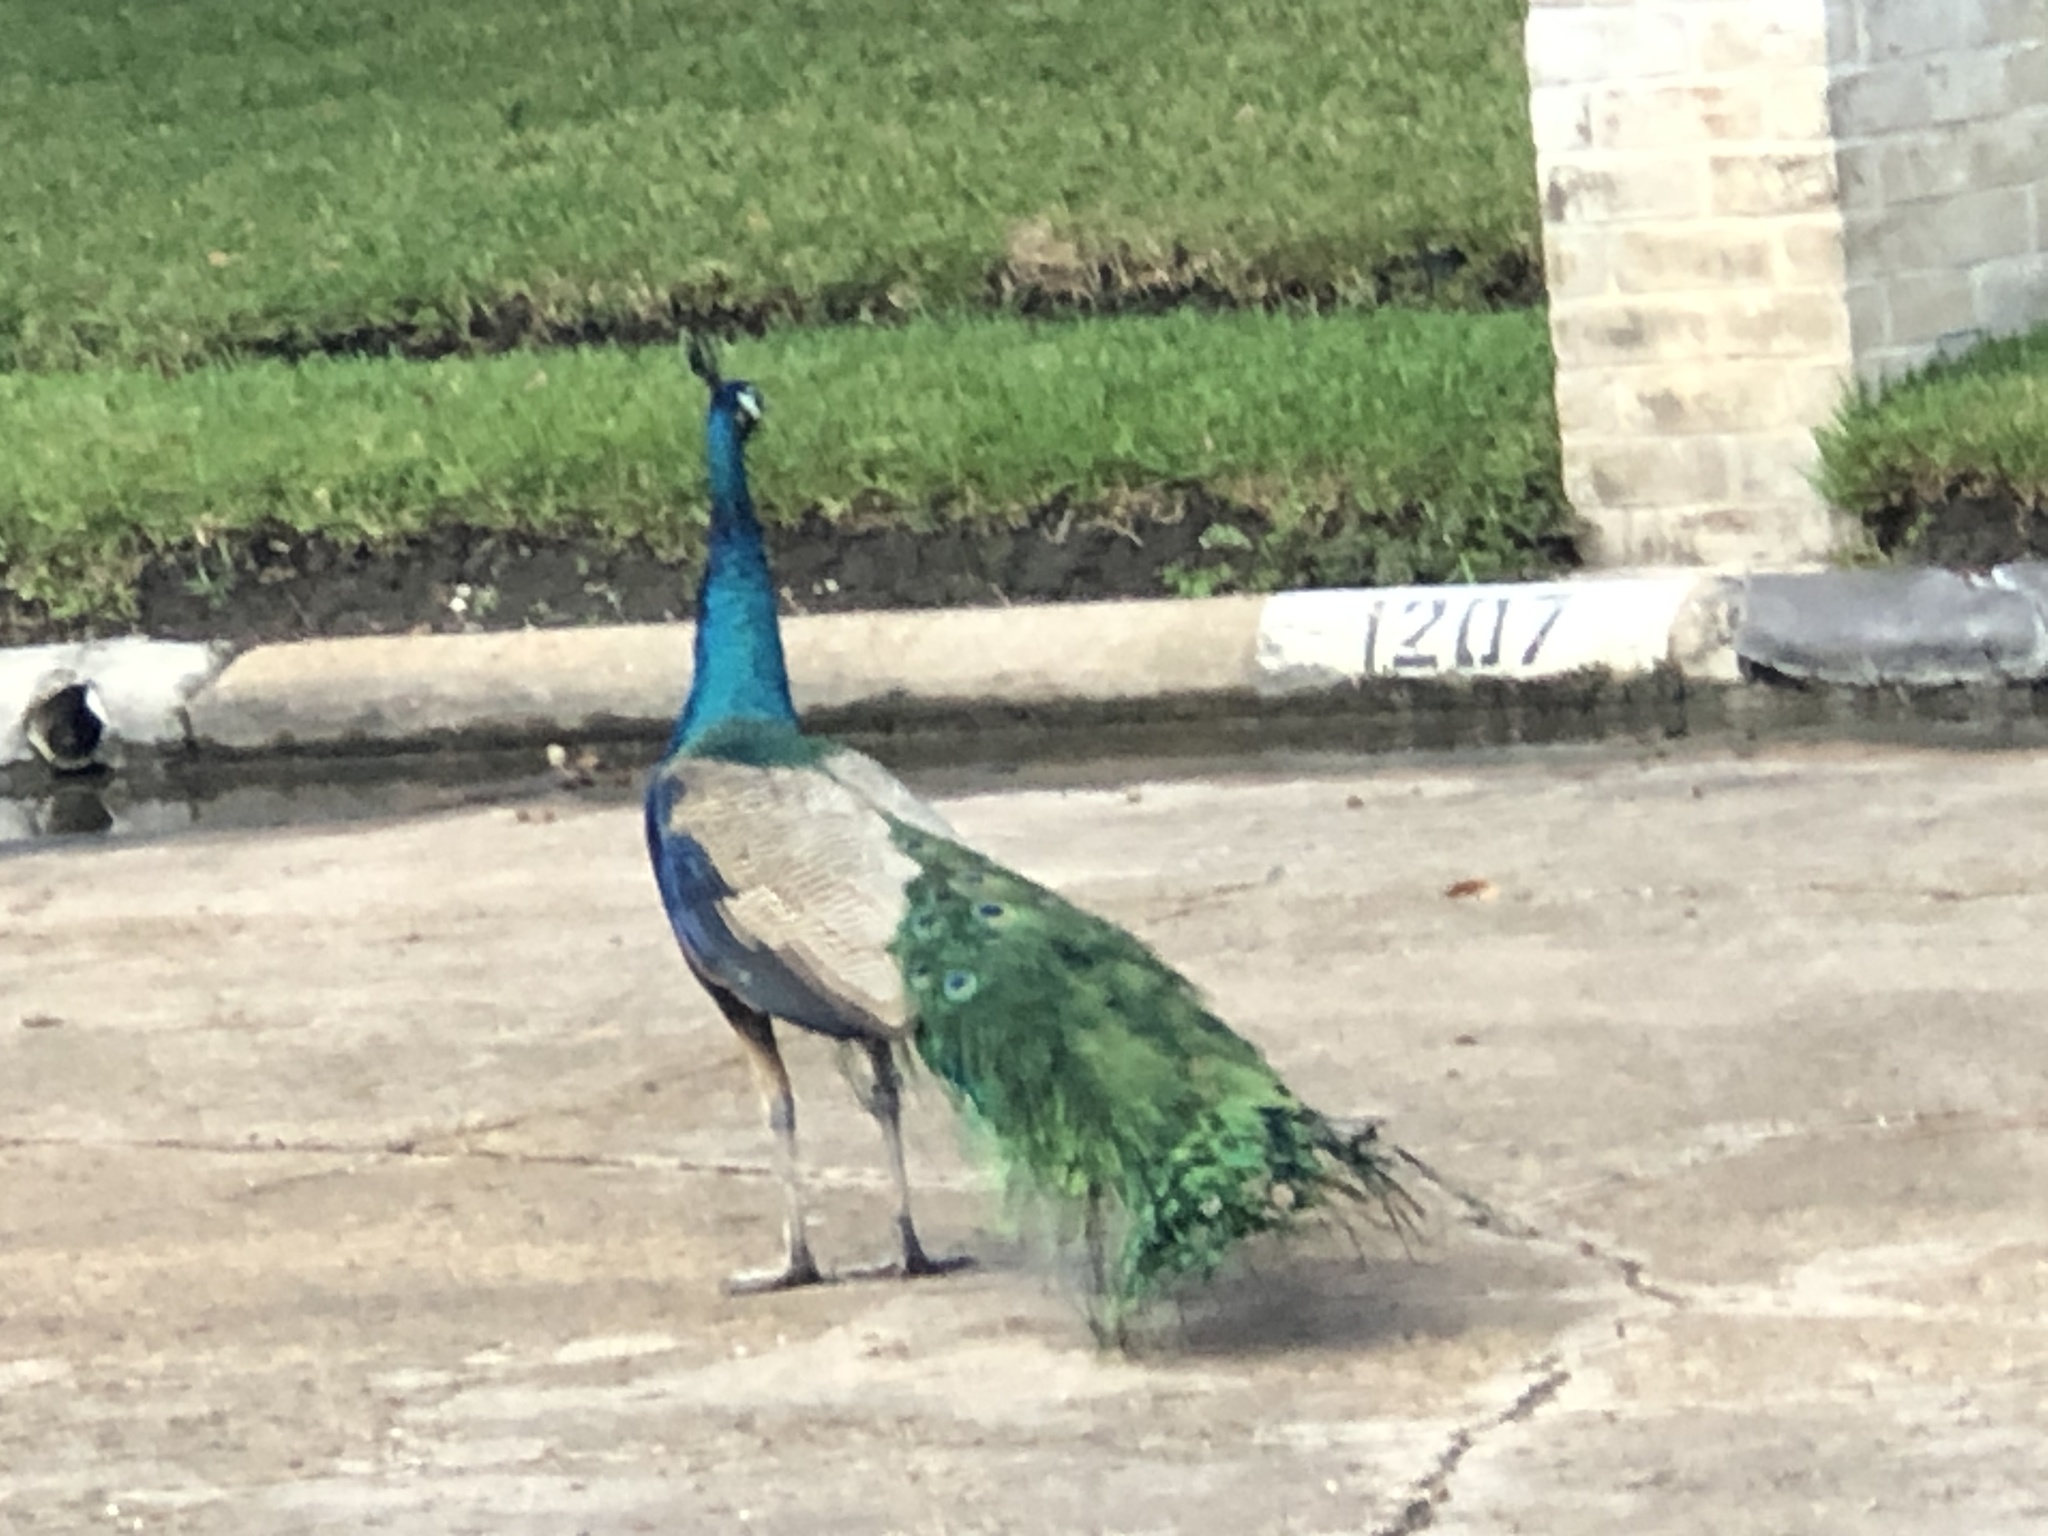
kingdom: Animalia
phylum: Chordata
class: Aves
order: Galliformes
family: Phasianidae
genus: Pavo
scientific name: Pavo cristatus
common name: Indian peafowl
